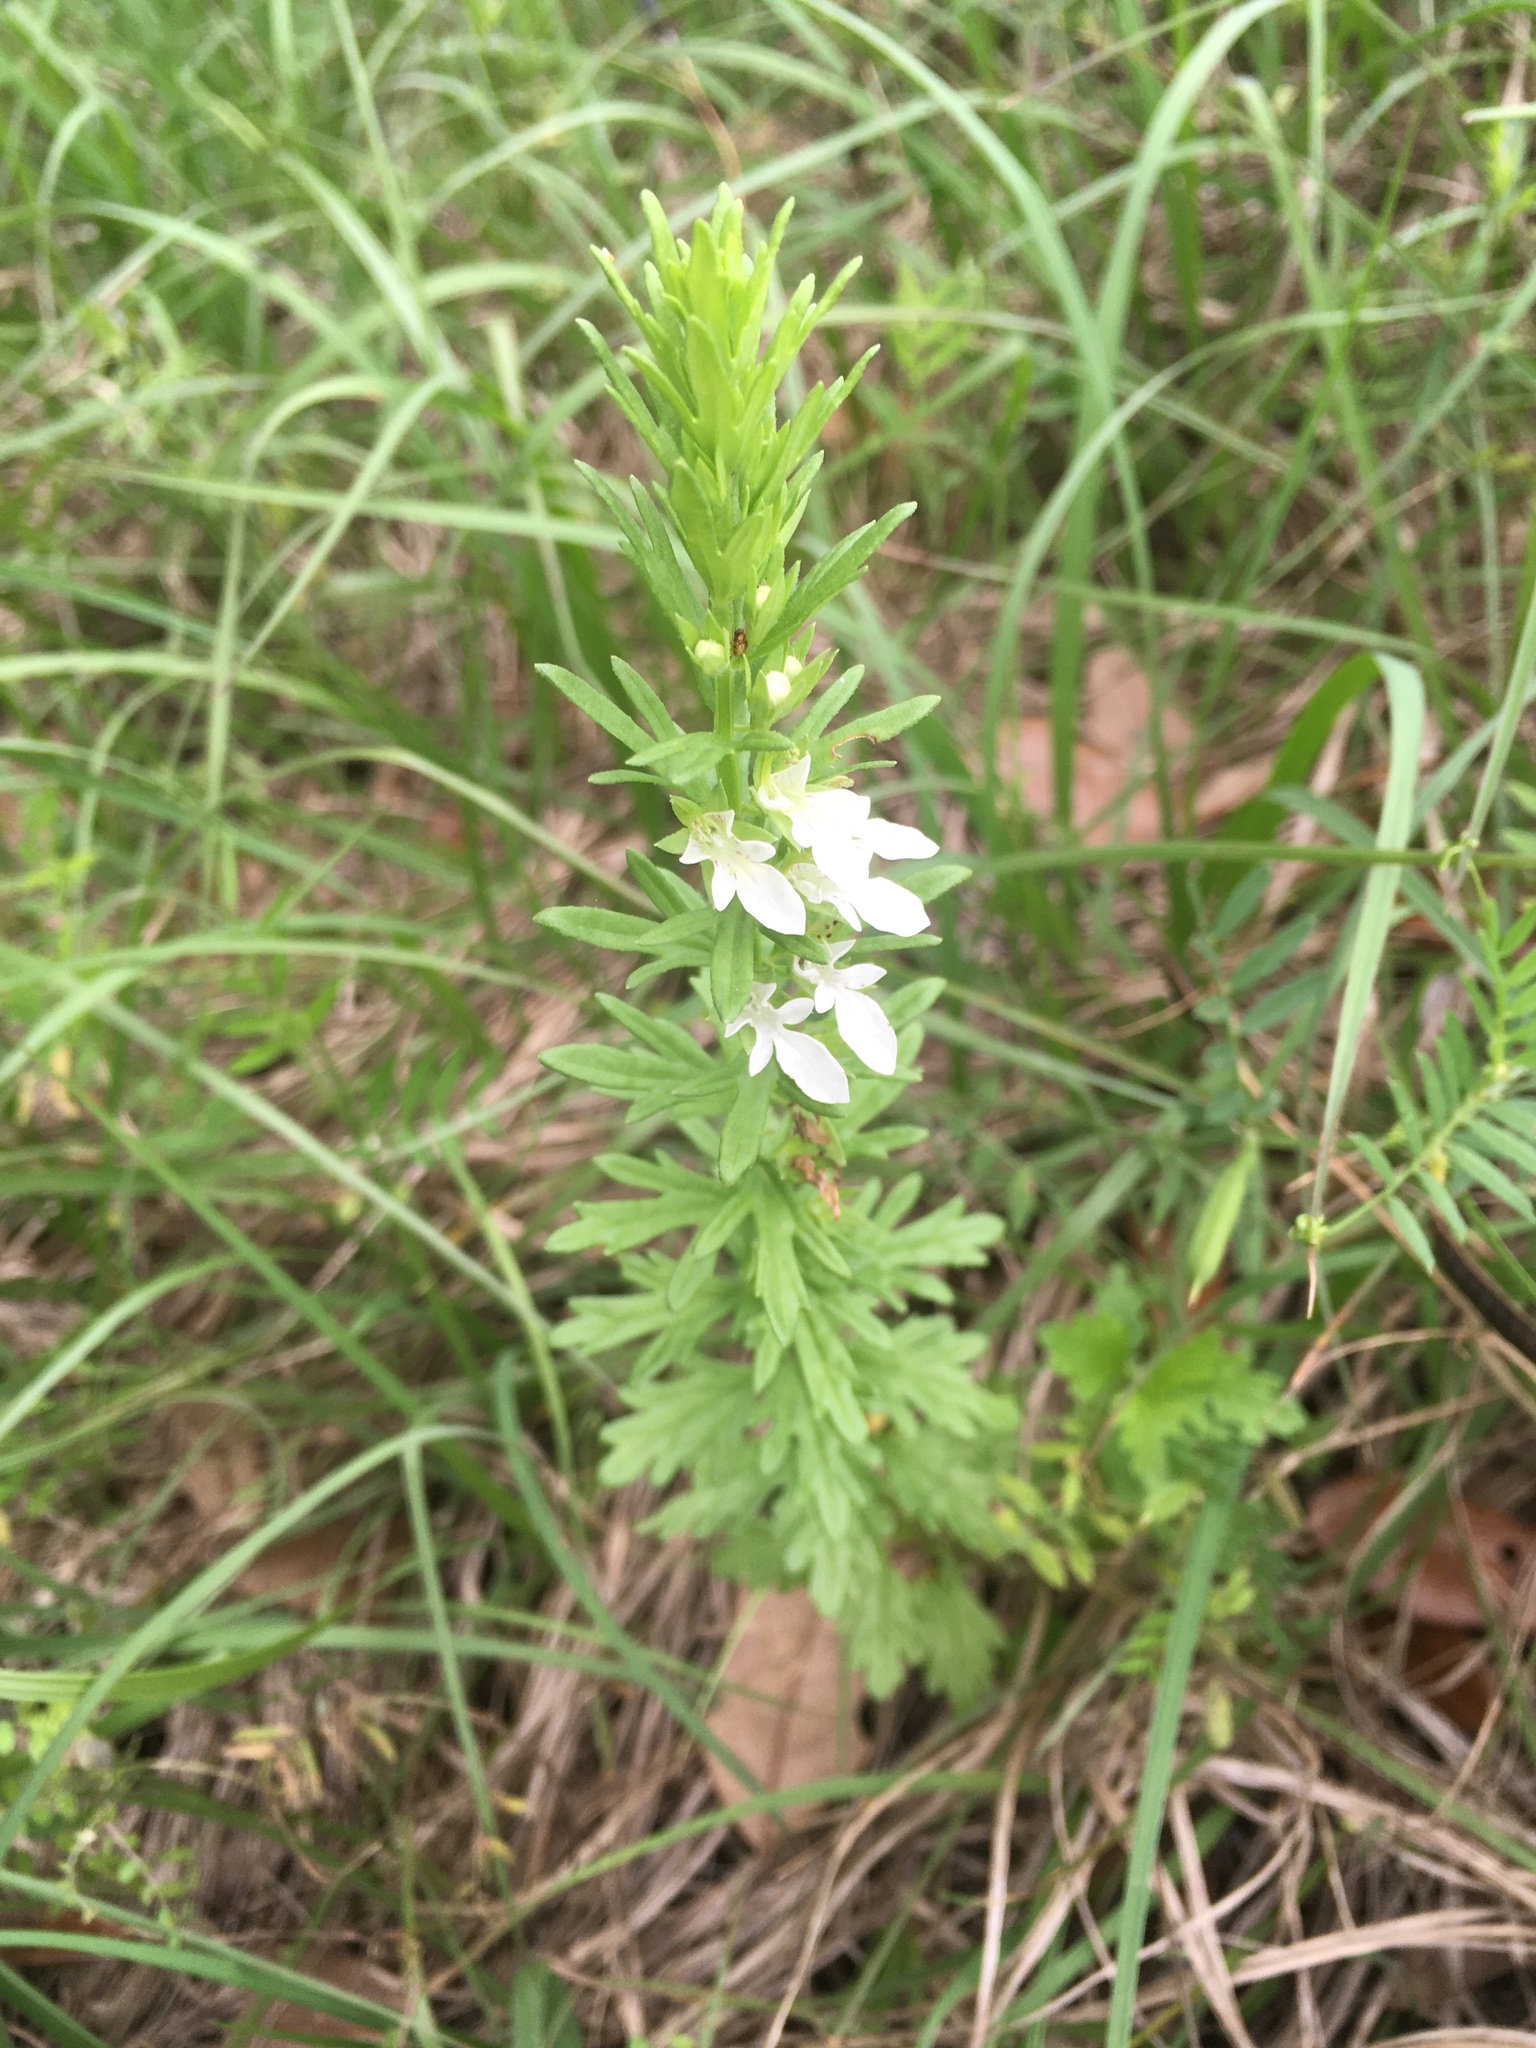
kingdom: Plantae
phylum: Tracheophyta
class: Magnoliopsida
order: Lamiales
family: Lamiaceae
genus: Teucrium
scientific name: Teucrium cubense
